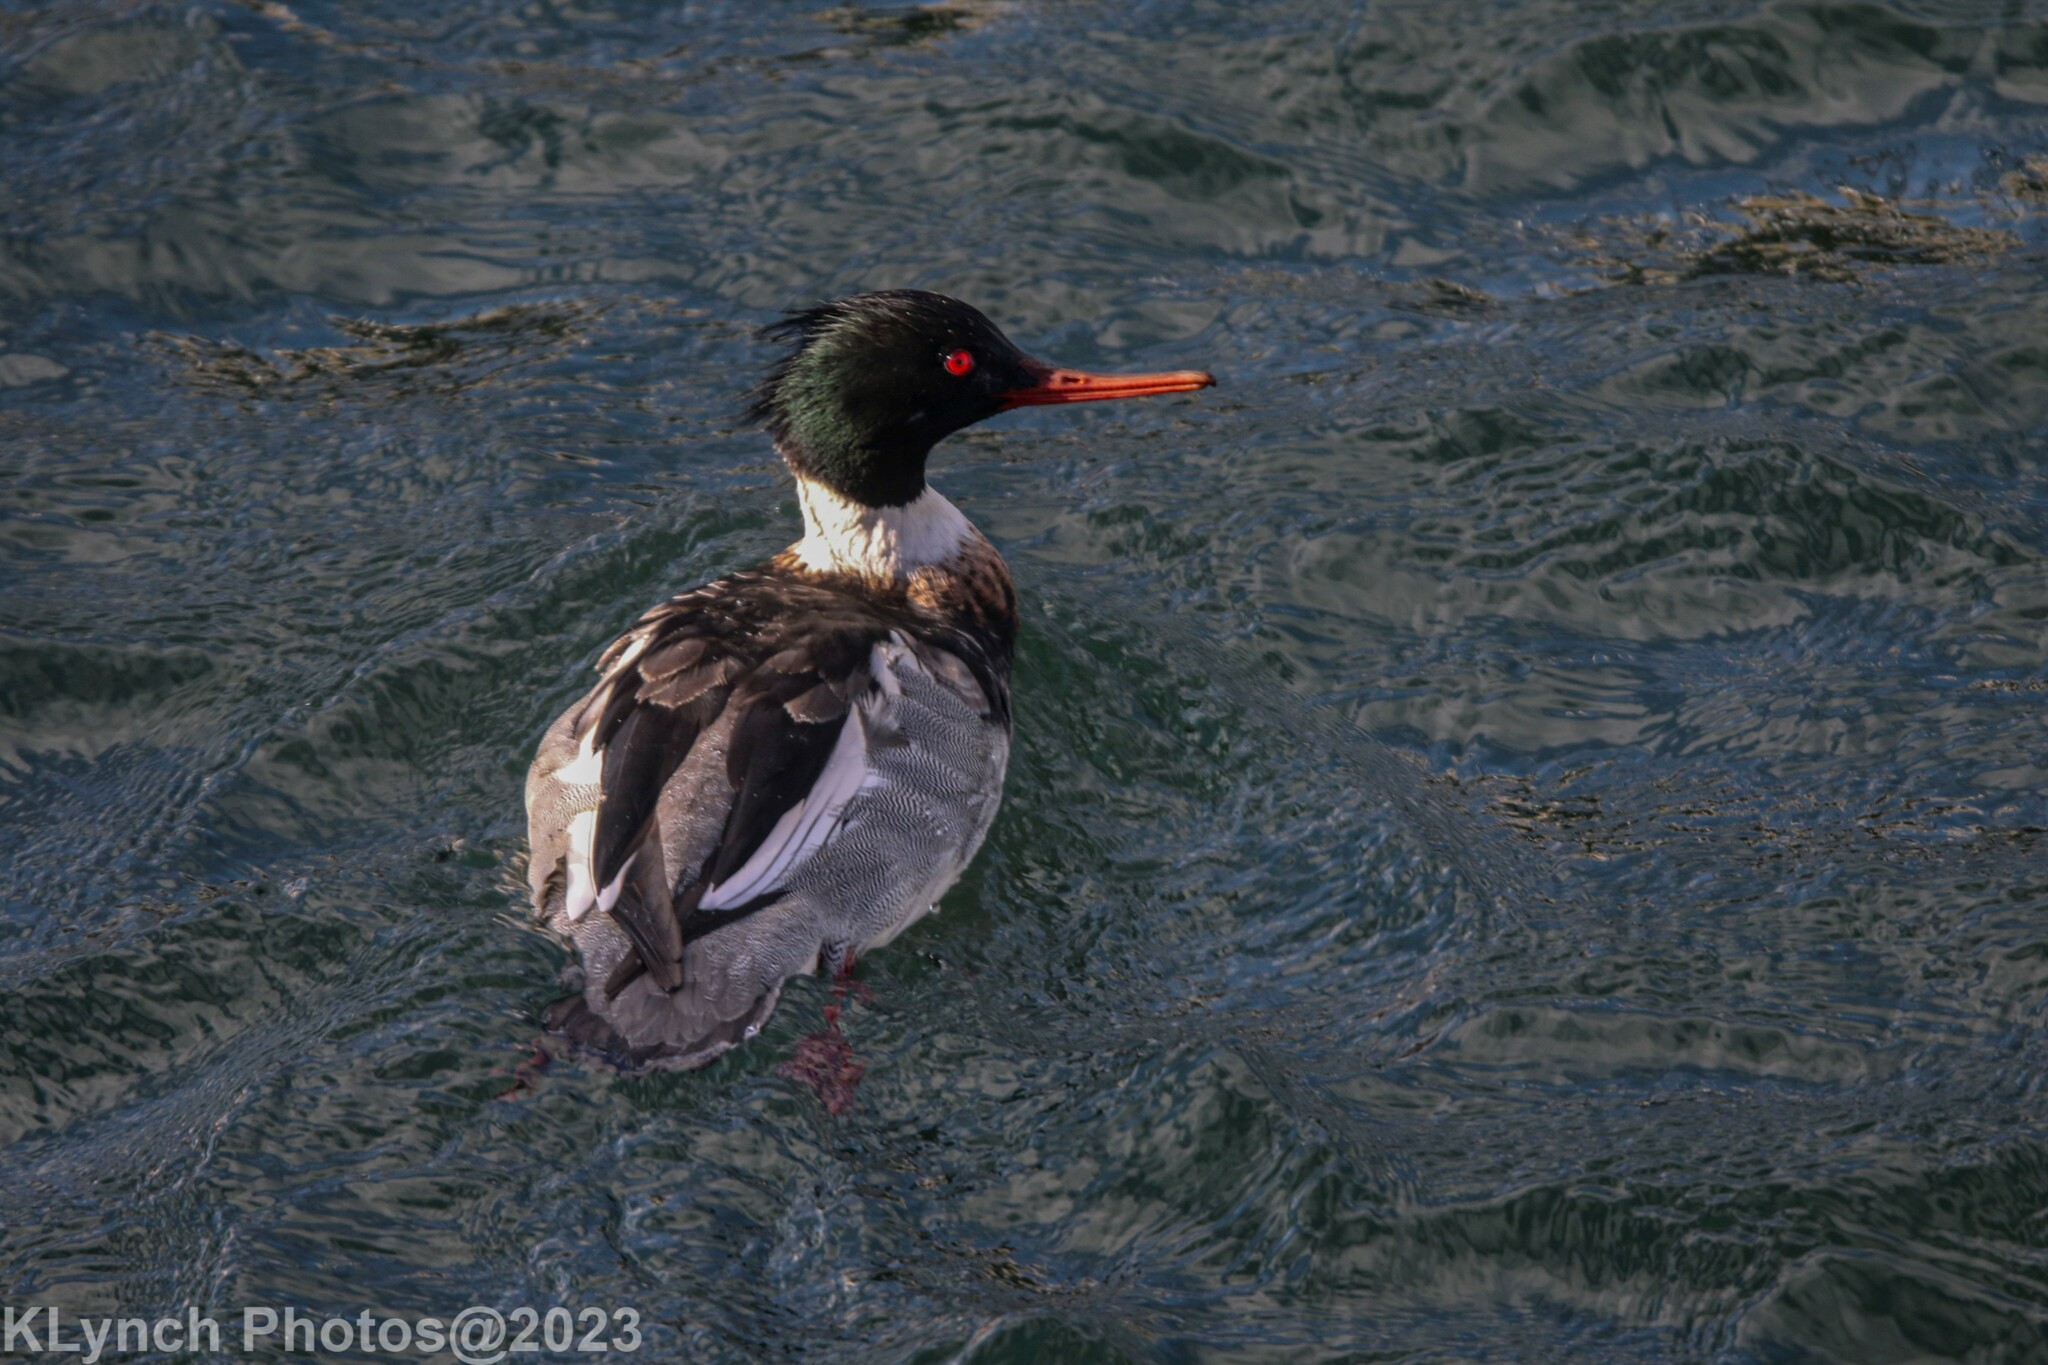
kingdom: Animalia
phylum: Chordata
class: Aves
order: Anseriformes
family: Anatidae
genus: Mergus
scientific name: Mergus serrator
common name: Red-breasted merganser
